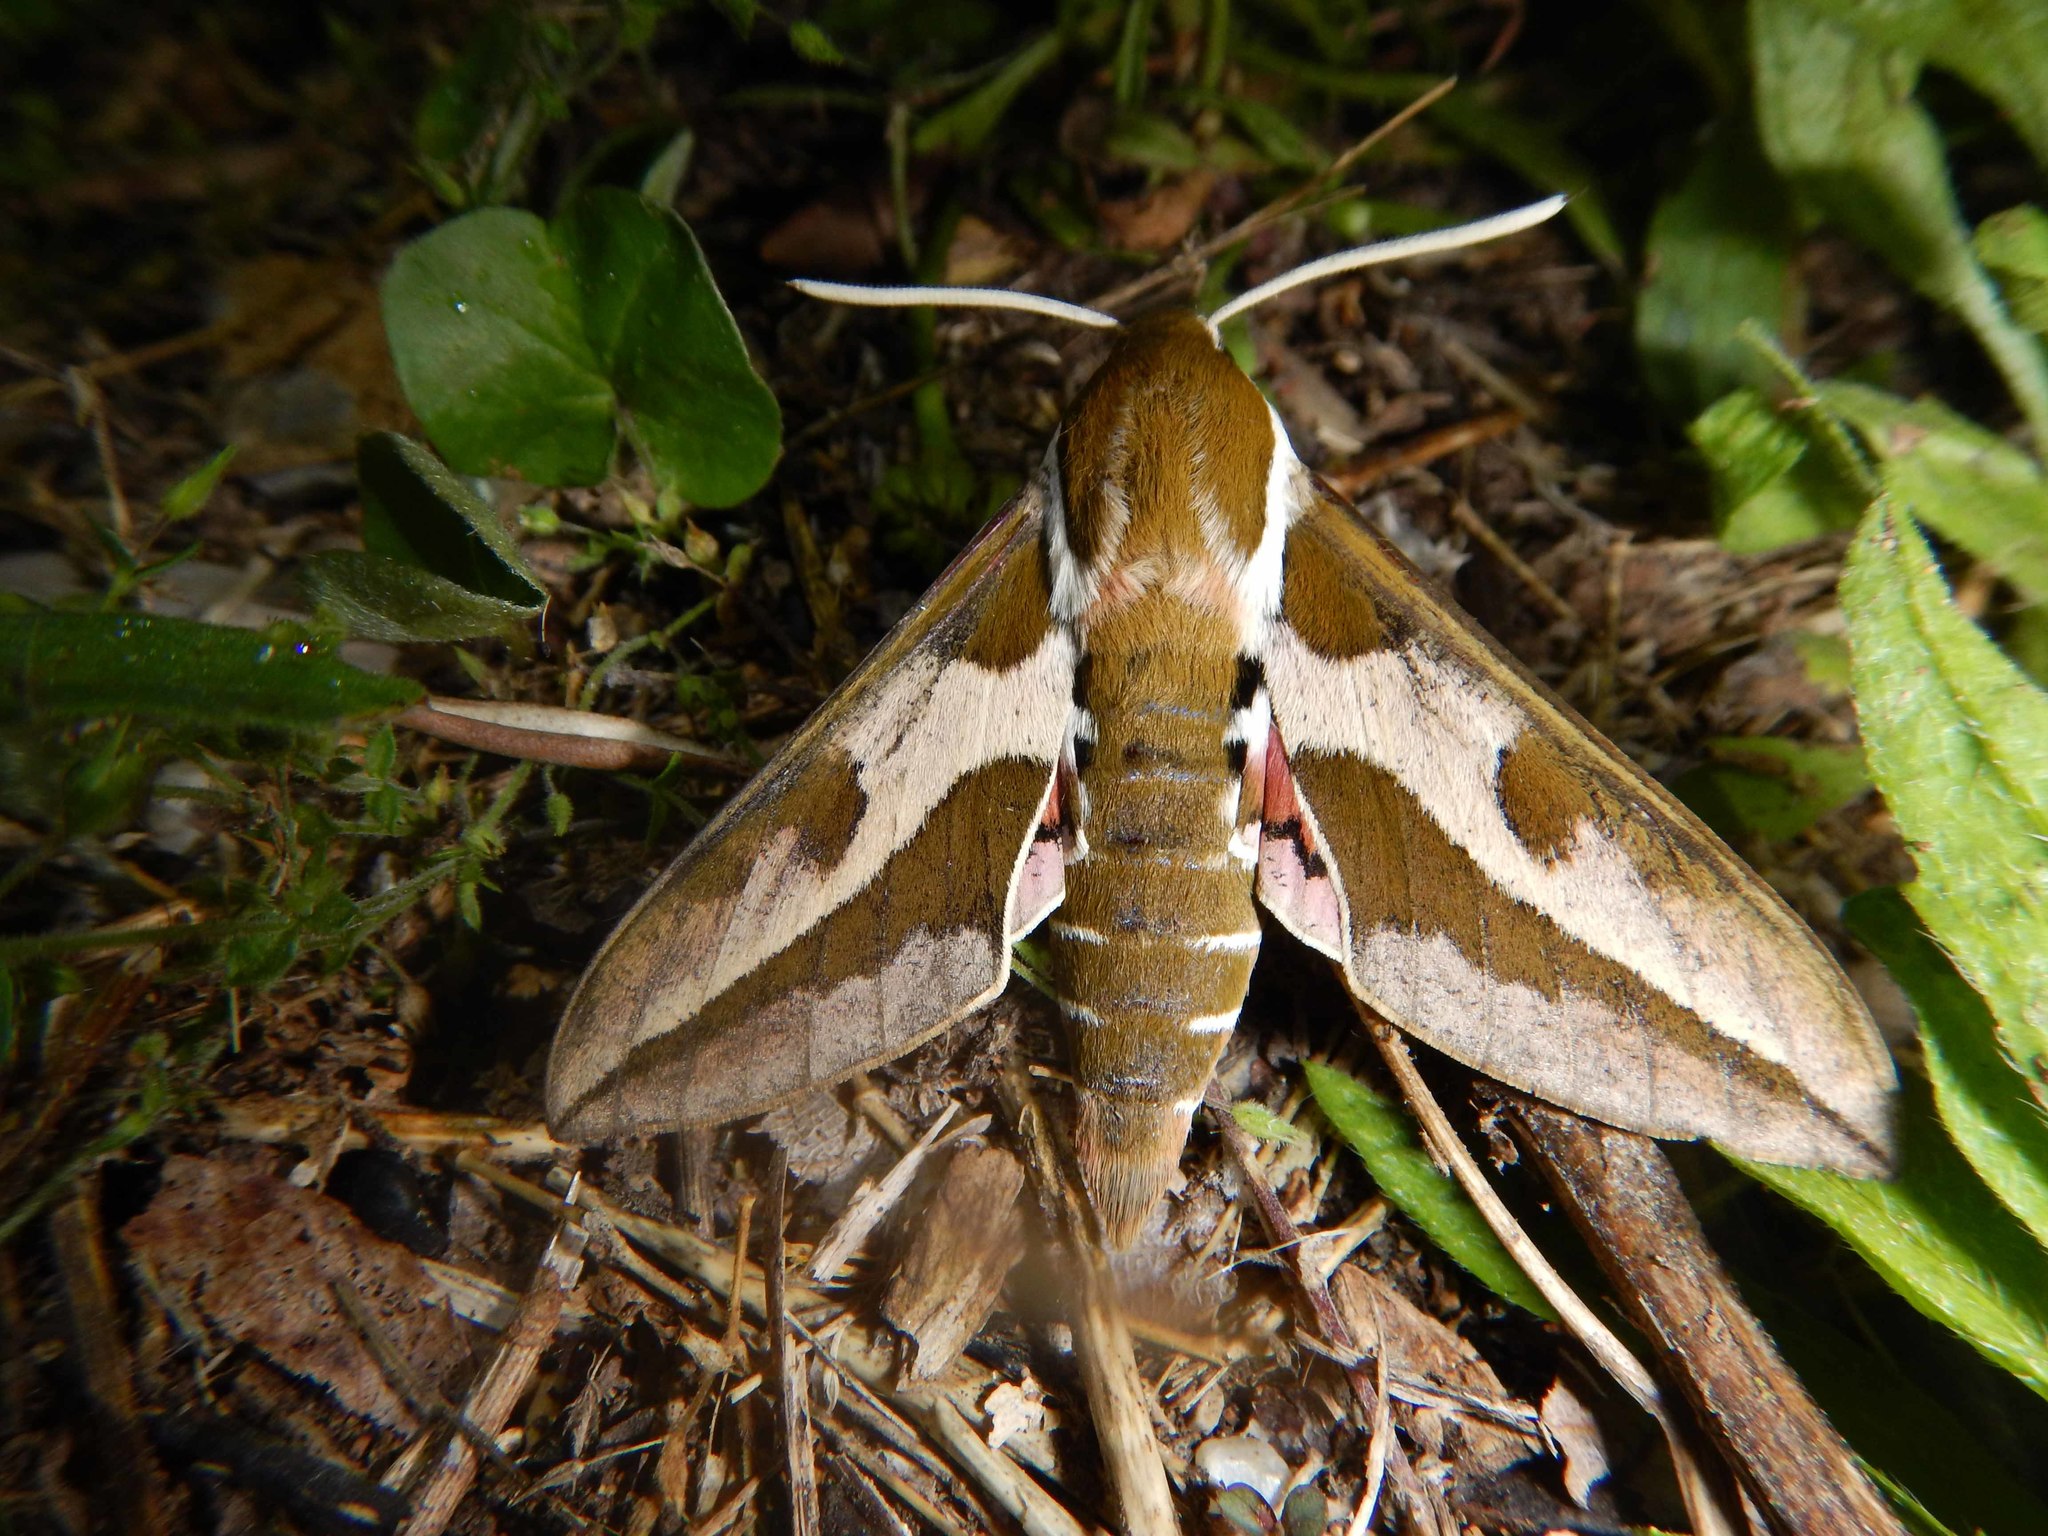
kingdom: Animalia
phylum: Arthropoda
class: Insecta
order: Lepidoptera
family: Sphingidae
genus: Hyles
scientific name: Hyles euphorbiae
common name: Spurge hawk-moth
